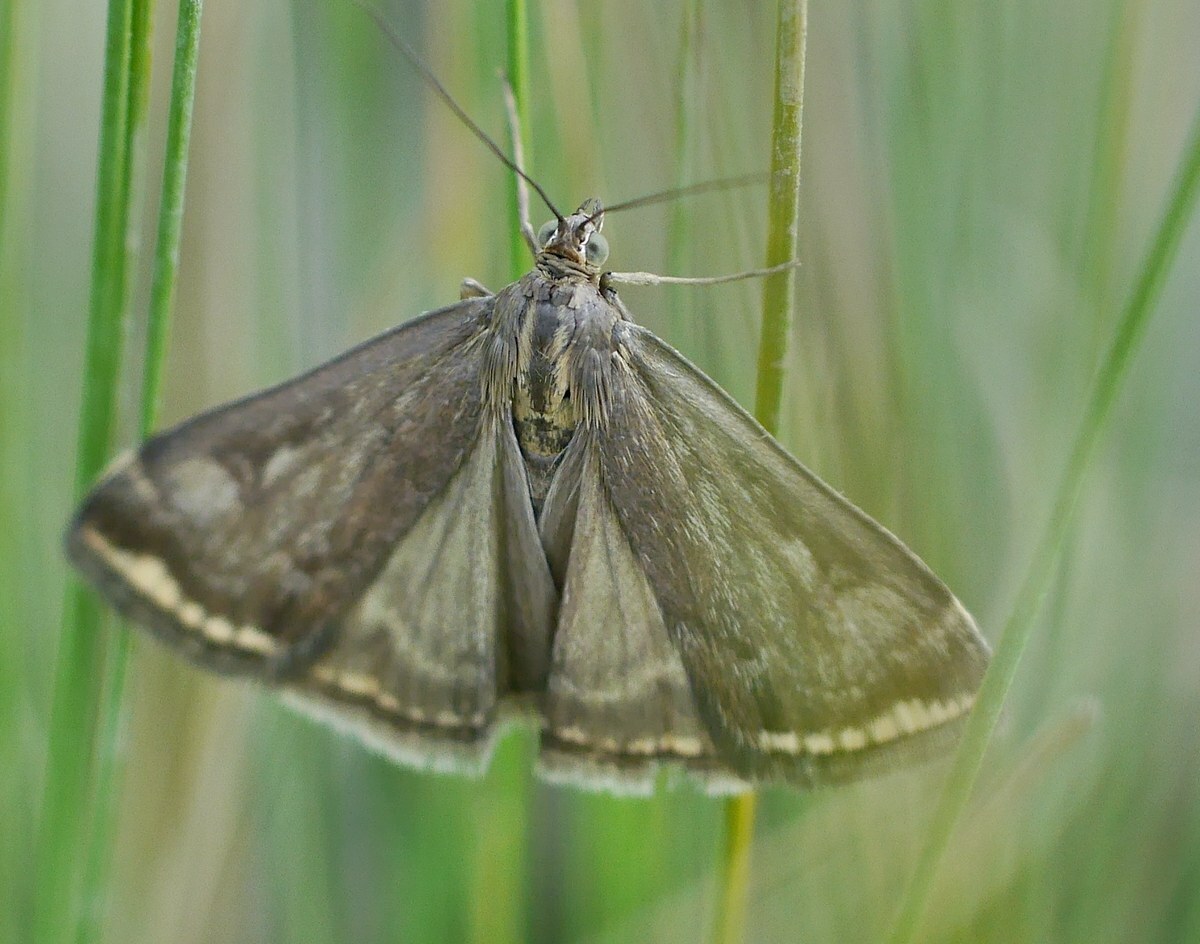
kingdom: Animalia
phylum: Arthropoda
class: Insecta
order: Lepidoptera
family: Crambidae
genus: Loxostege
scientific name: Loxostege sticticalis
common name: Crambid moth
